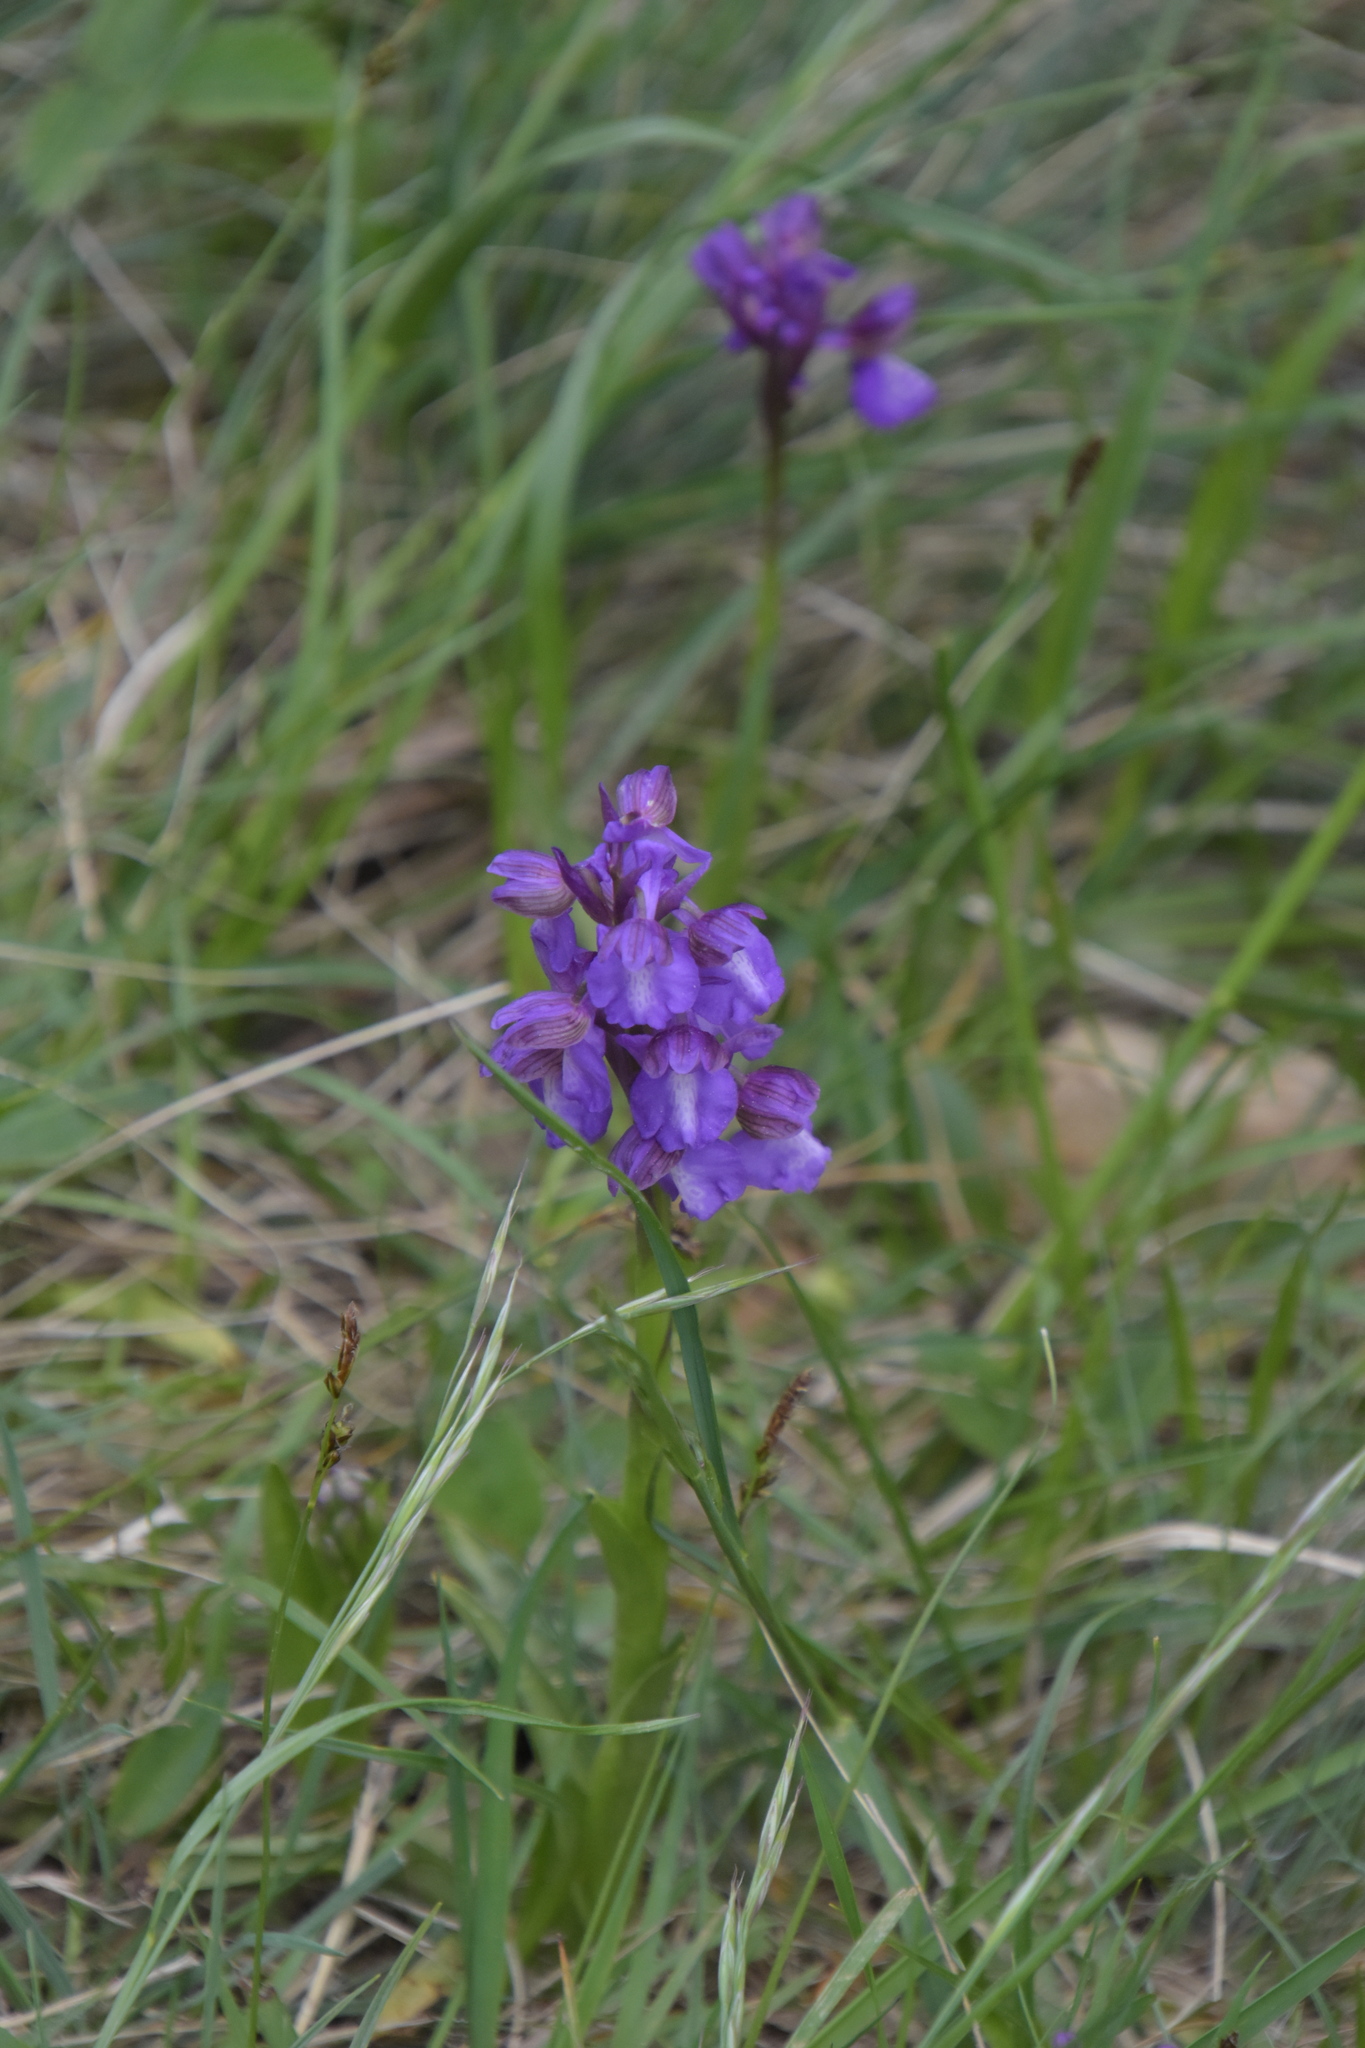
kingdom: Plantae
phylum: Tracheophyta
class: Liliopsida
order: Asparagales
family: Orchidaceae
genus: Anacamptis
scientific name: Anacamptis morio
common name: Green-winged orchid
